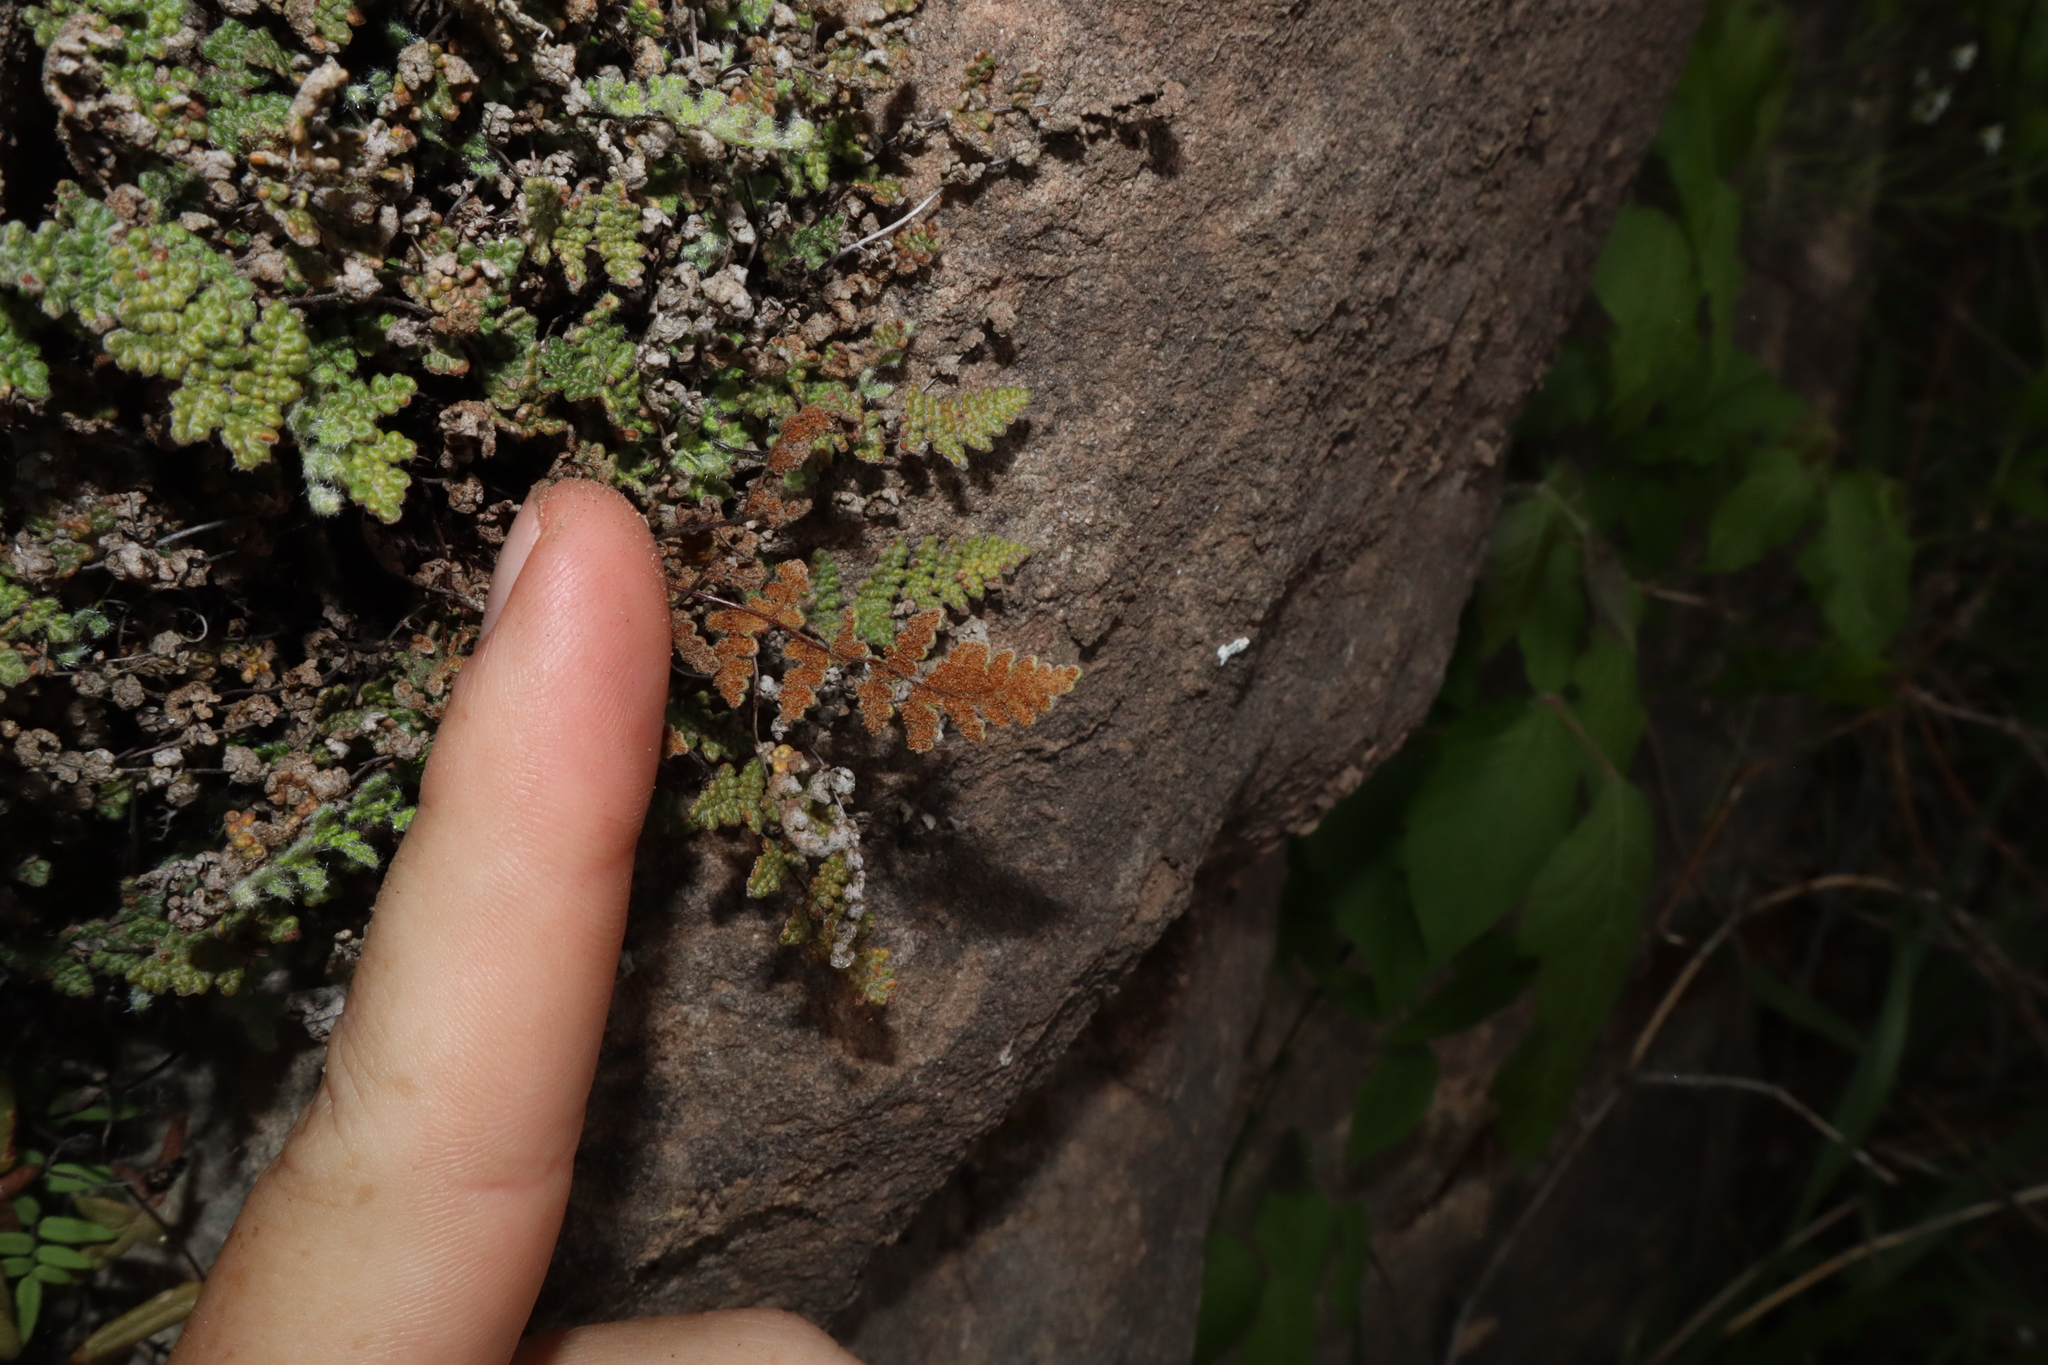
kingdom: Plantae
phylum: Tracheophyta
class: Polypodiopsida
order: Polypodiales
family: Pteridaceae
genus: Myriopteris
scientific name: Myriopteris gracilis
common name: Fee's lip fern
